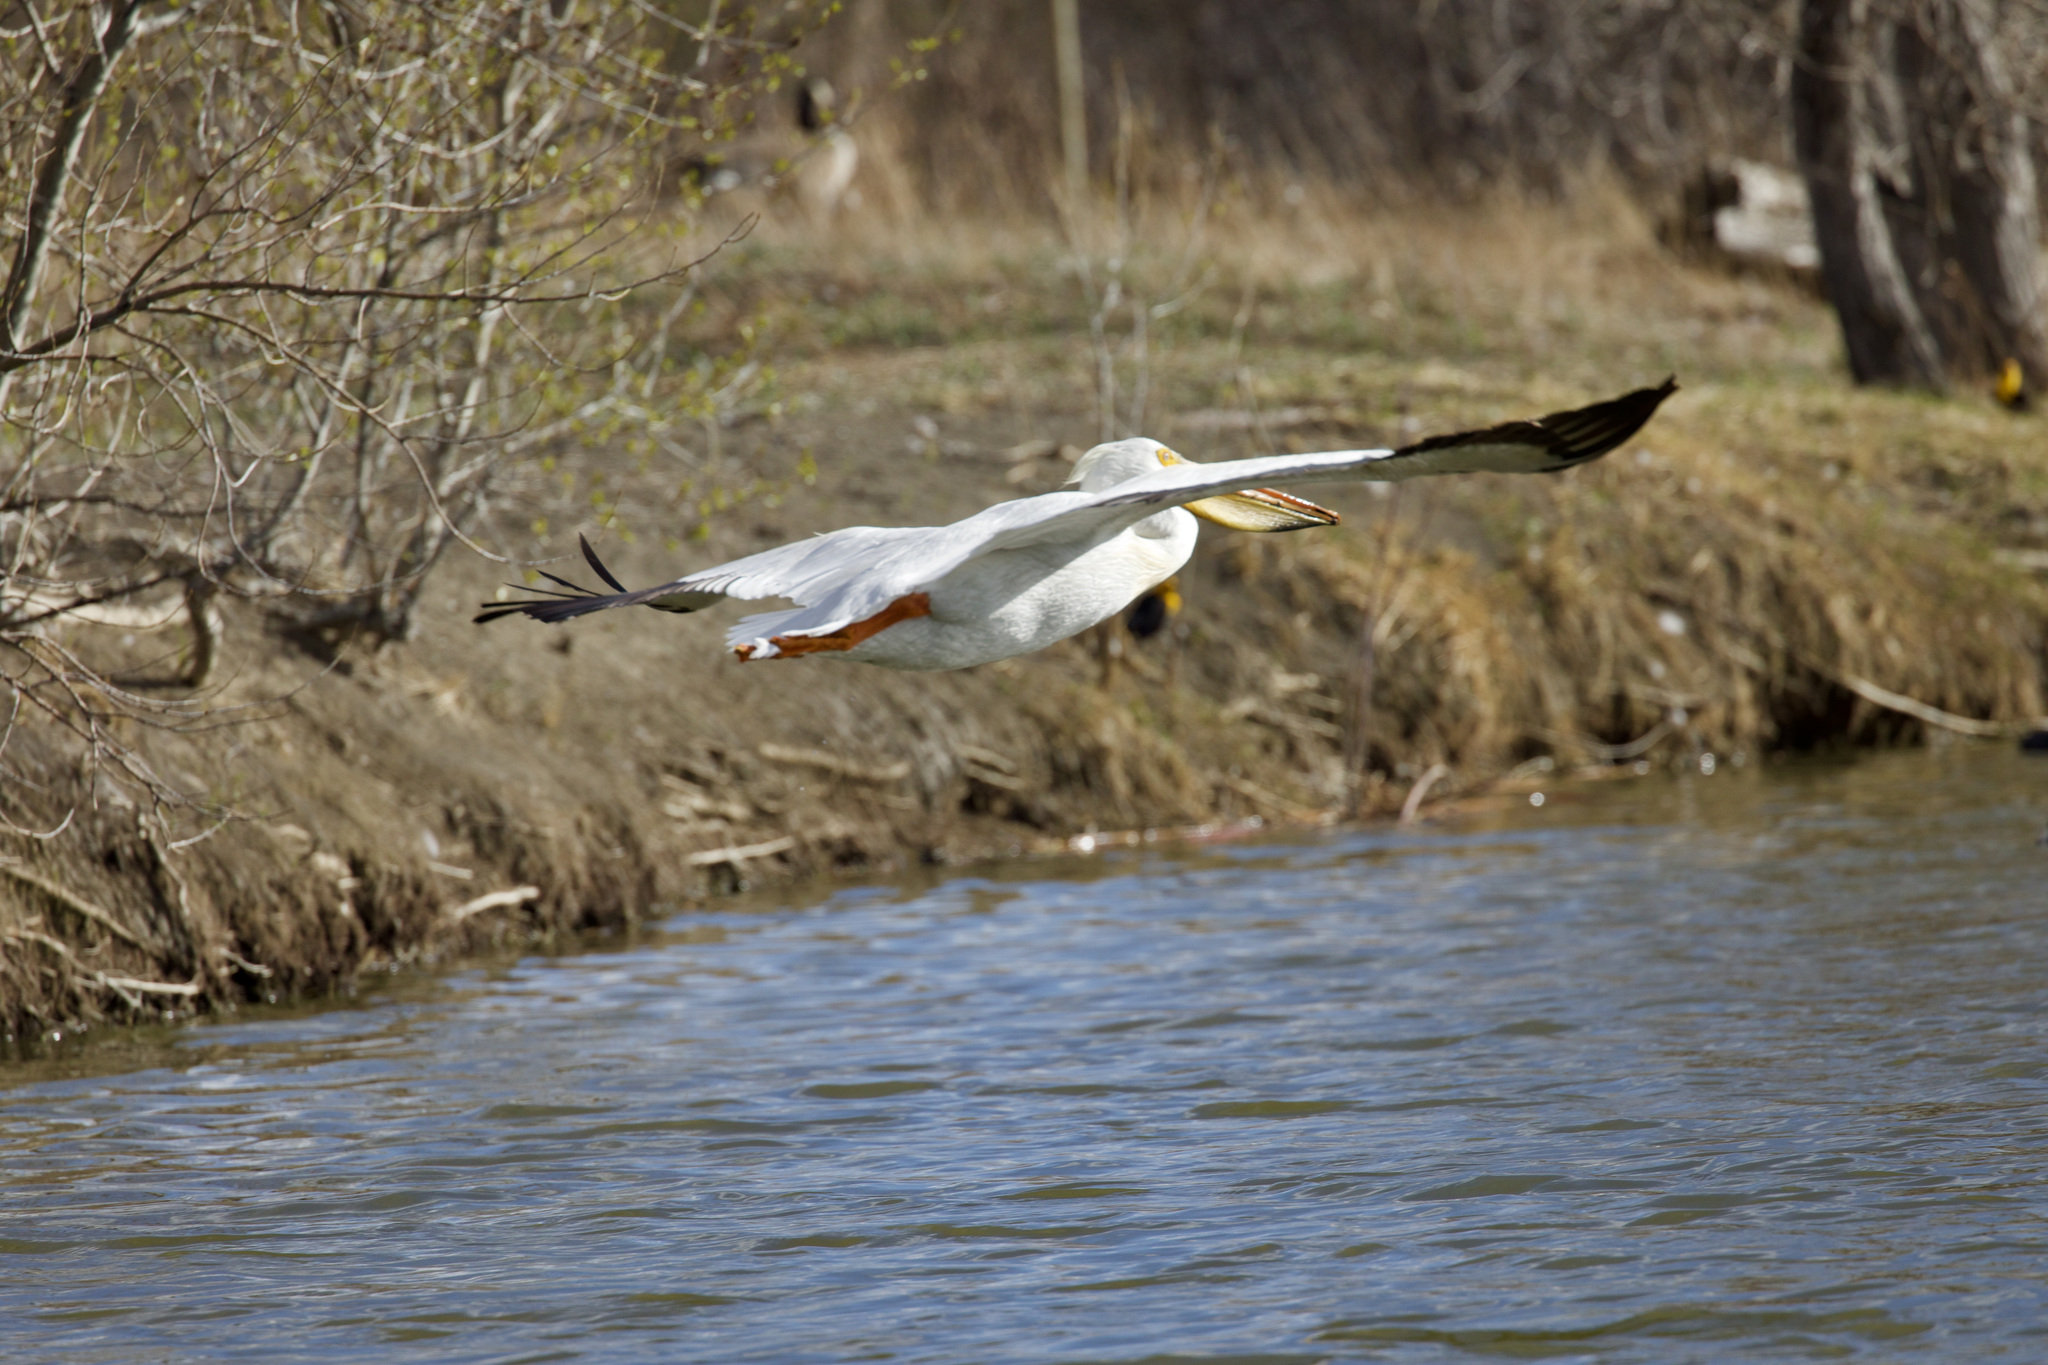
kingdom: Animalia
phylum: Chordata
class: Aves
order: Pelecaniformes
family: Pelecanidae
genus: Pelecanus
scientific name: Pelecanus erythrorhynchos
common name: American white pelican
